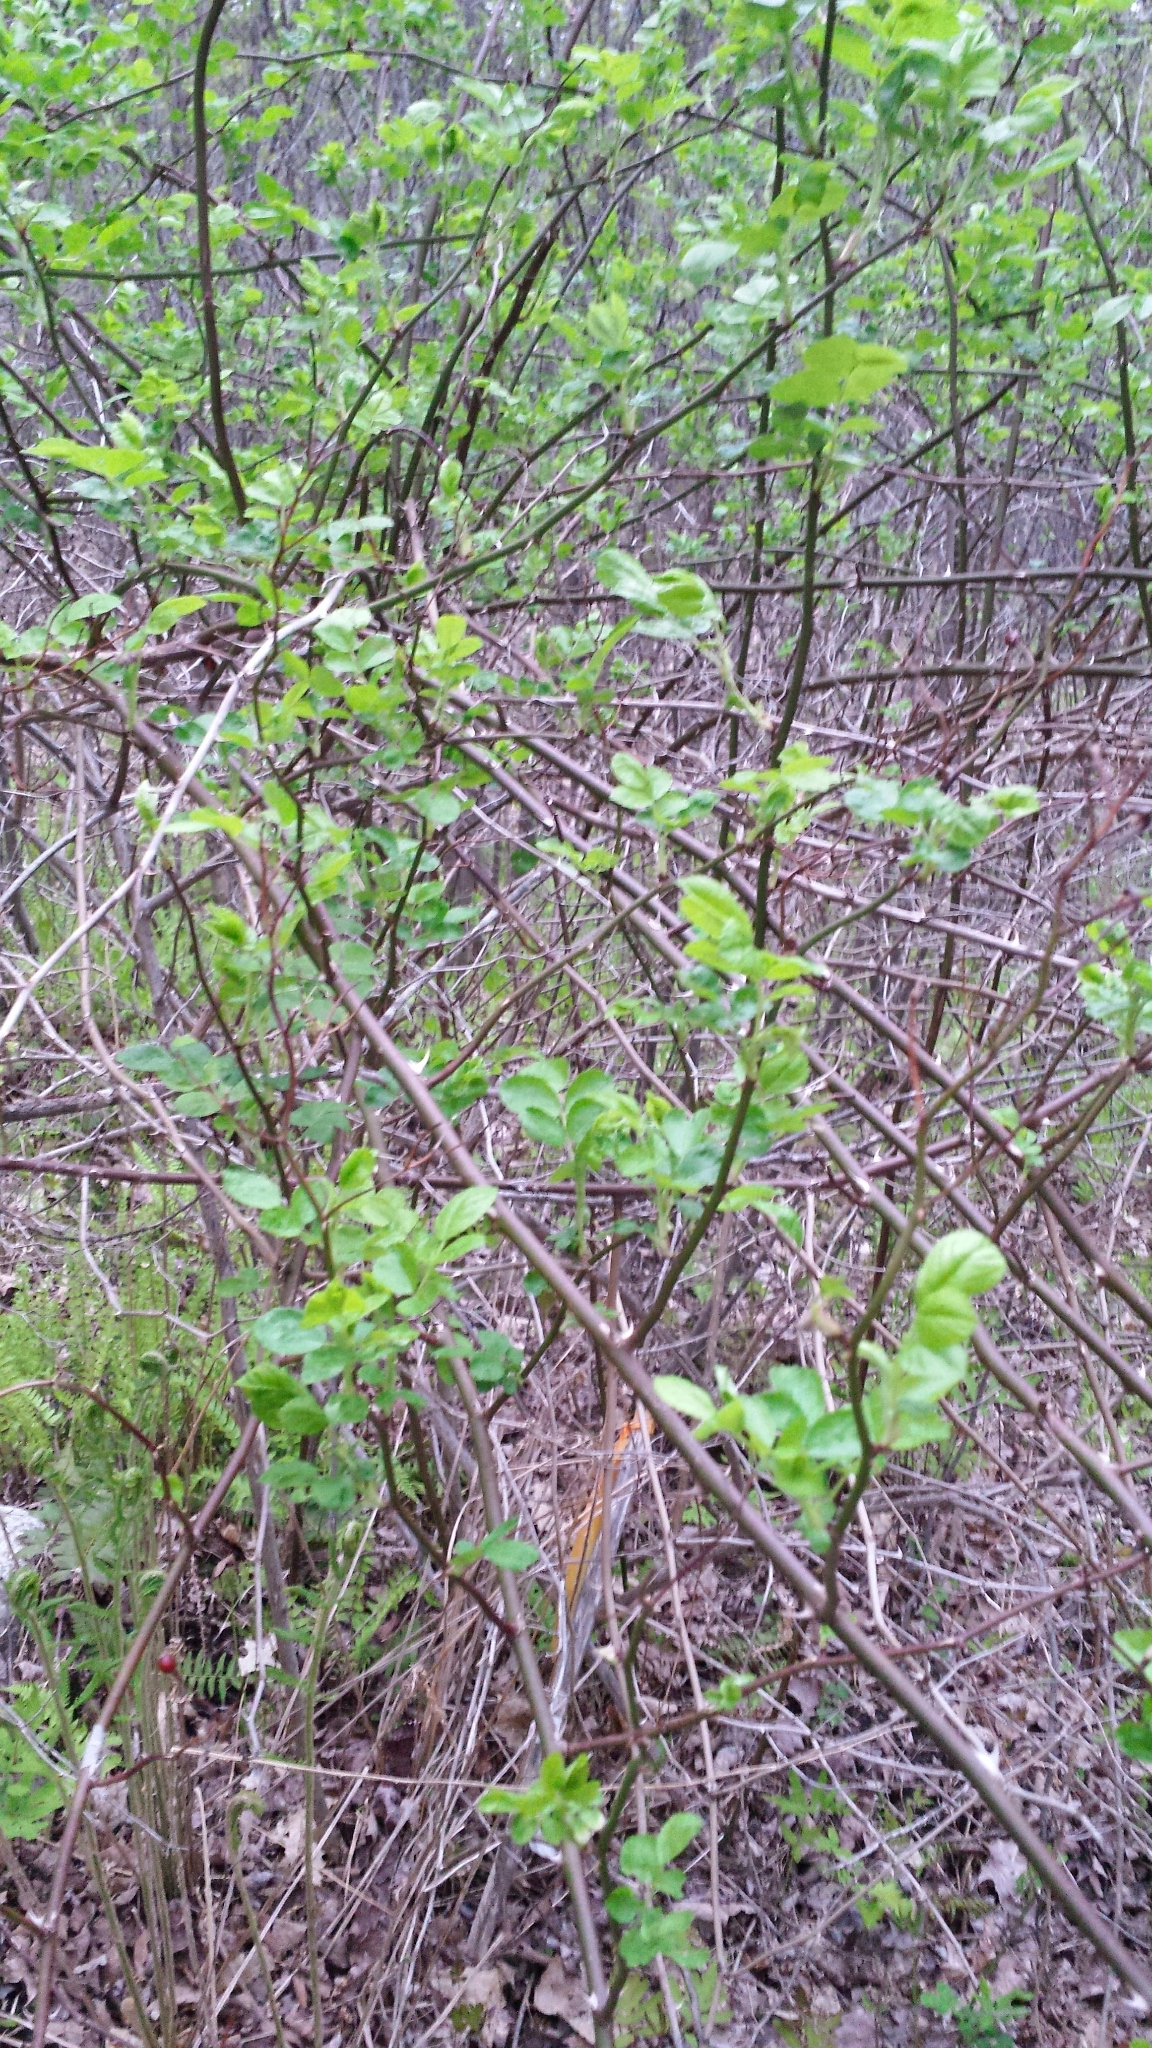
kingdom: Plantae
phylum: Tracheophyta
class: Magnoliopsida
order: Rosales
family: Rosaceae
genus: Rosa
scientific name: Rosa multiflora
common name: Multiflora rose
